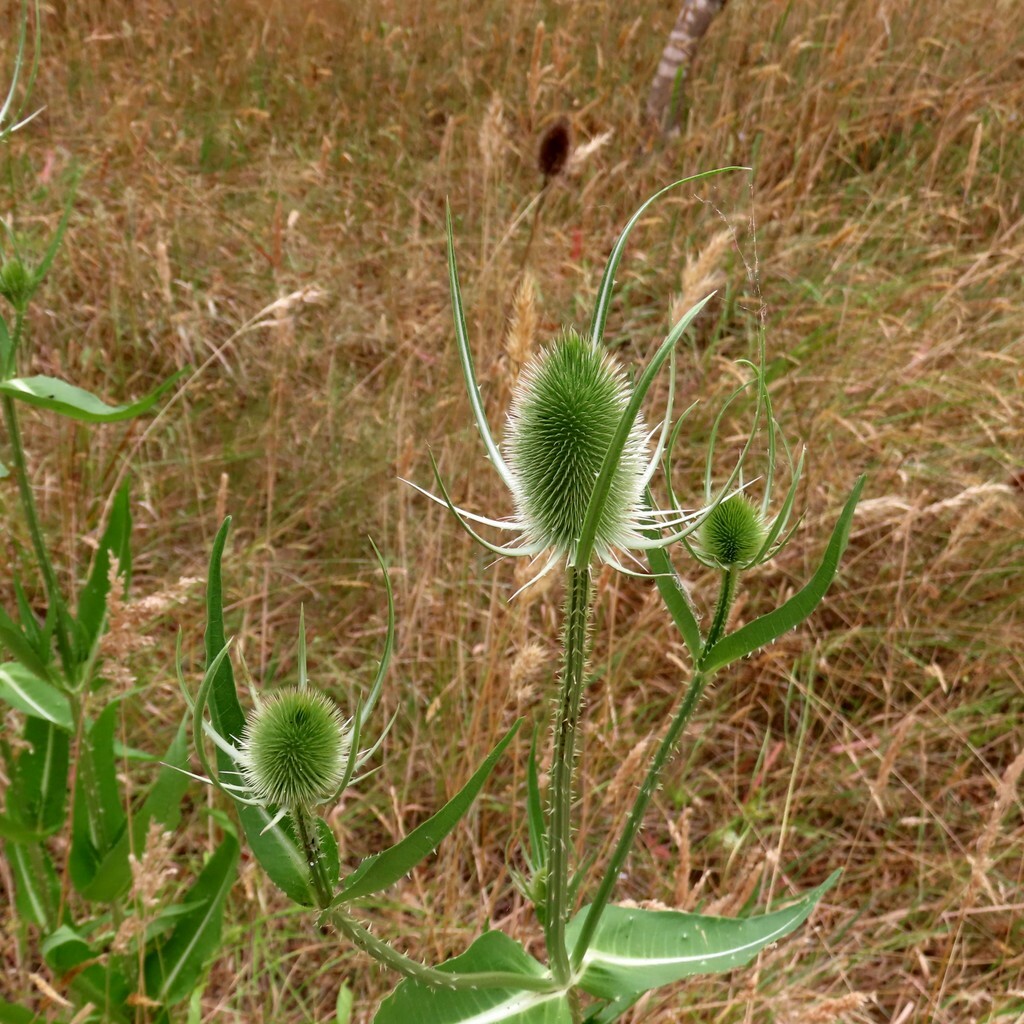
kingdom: Plantae
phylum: Tracheophyta
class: Magnoliopsida
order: Dipsacales
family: Caprifoliaceae
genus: Dipsacus
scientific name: Dipsacus fullonum
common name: Teasel
